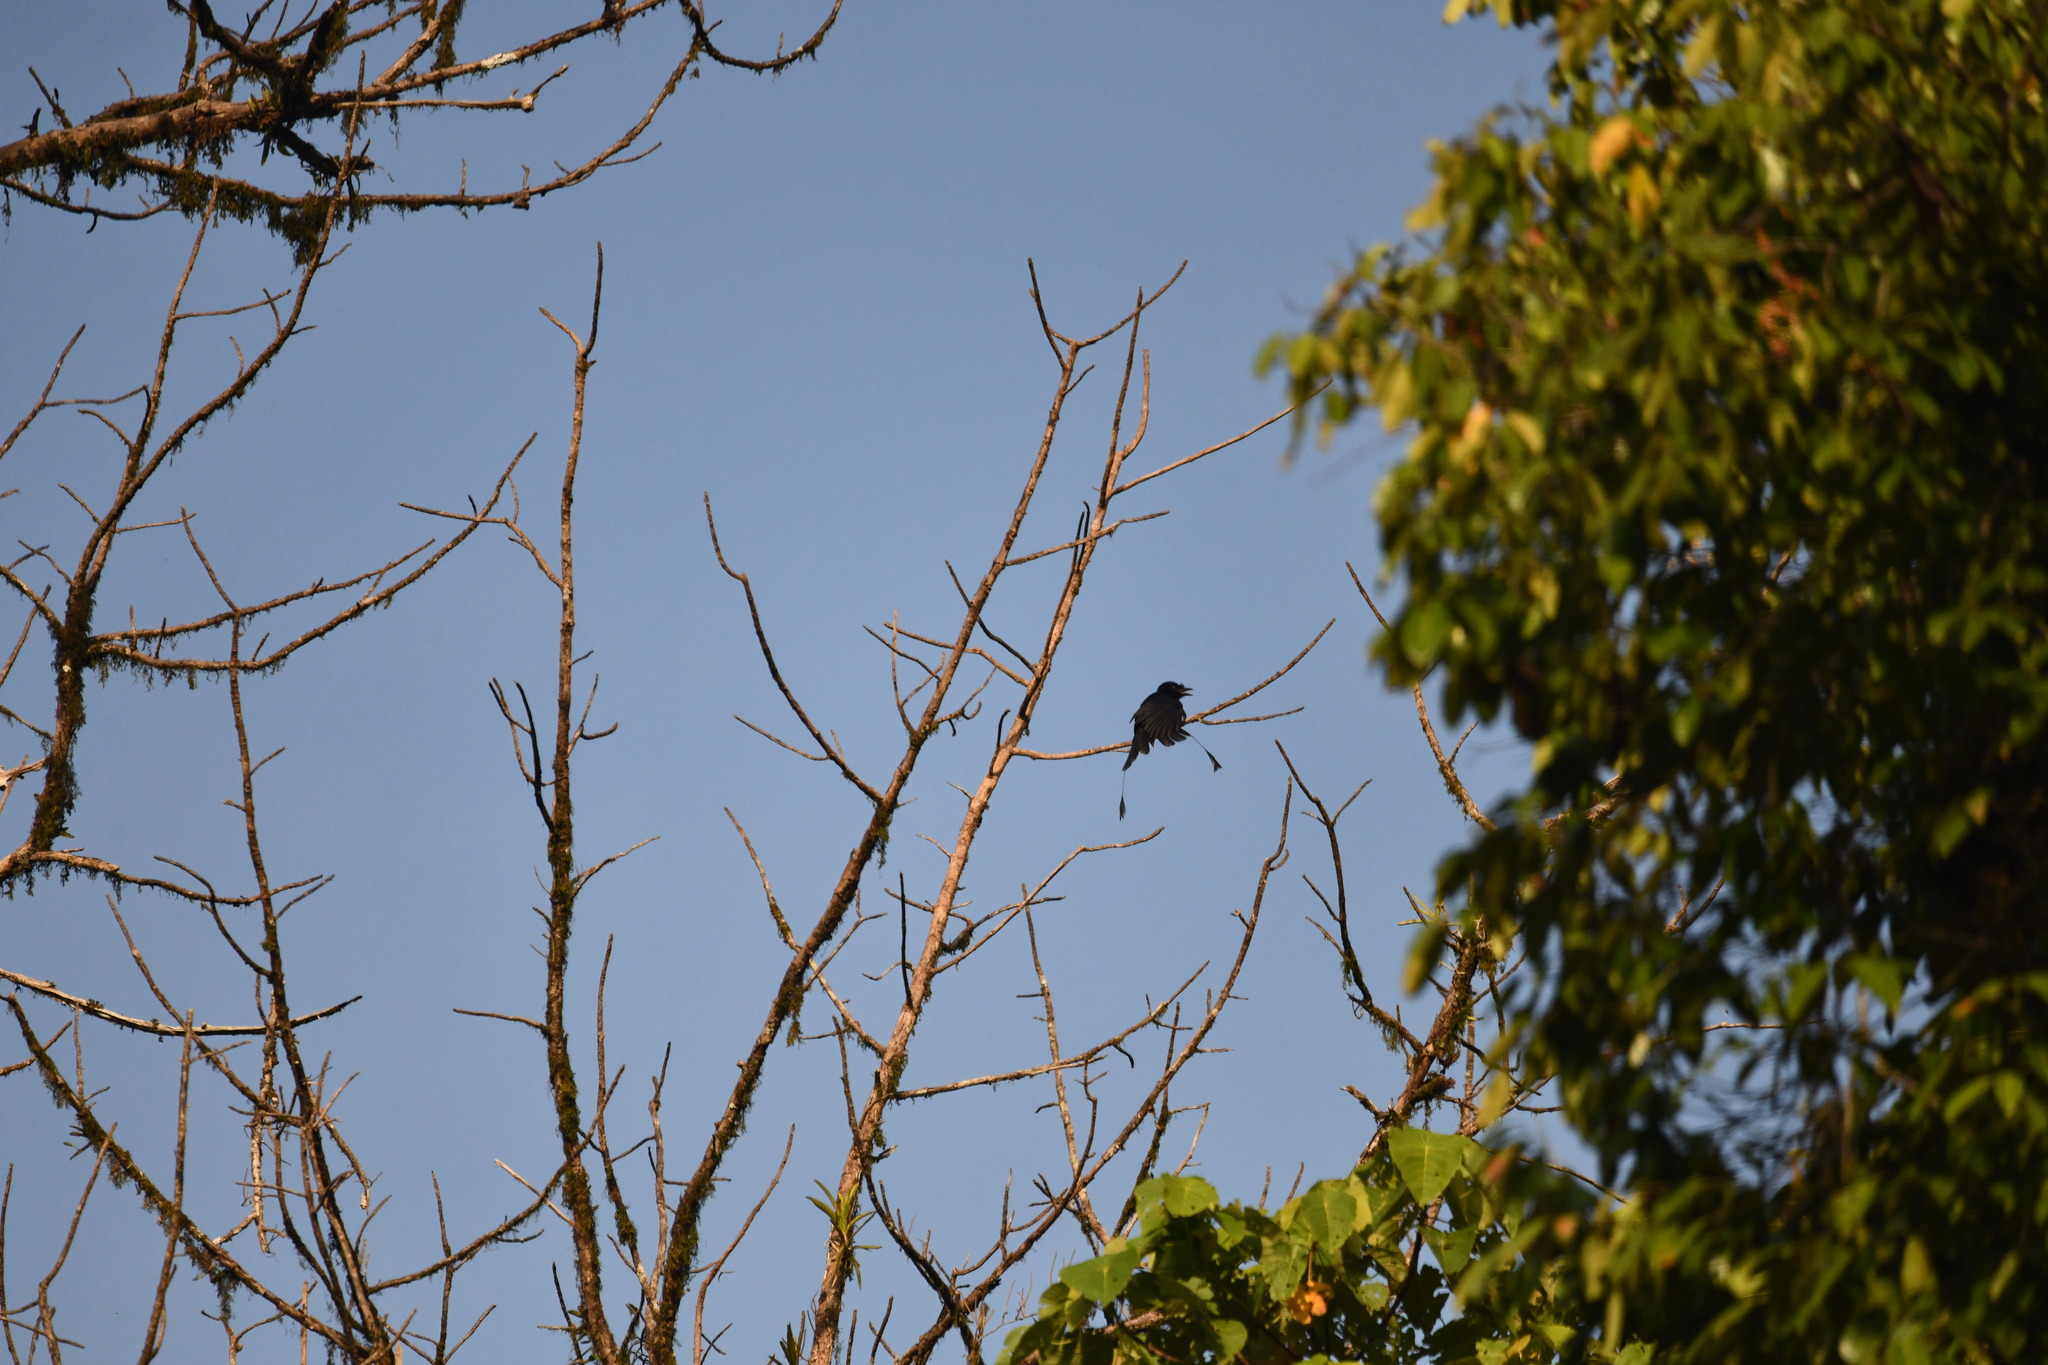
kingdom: Animalia
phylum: Chordata
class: Aves
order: Passeriformes
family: Dicruridae
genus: Dicrurus
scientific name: Dicrurus paradiseus
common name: Greater racket-tailed drongo
